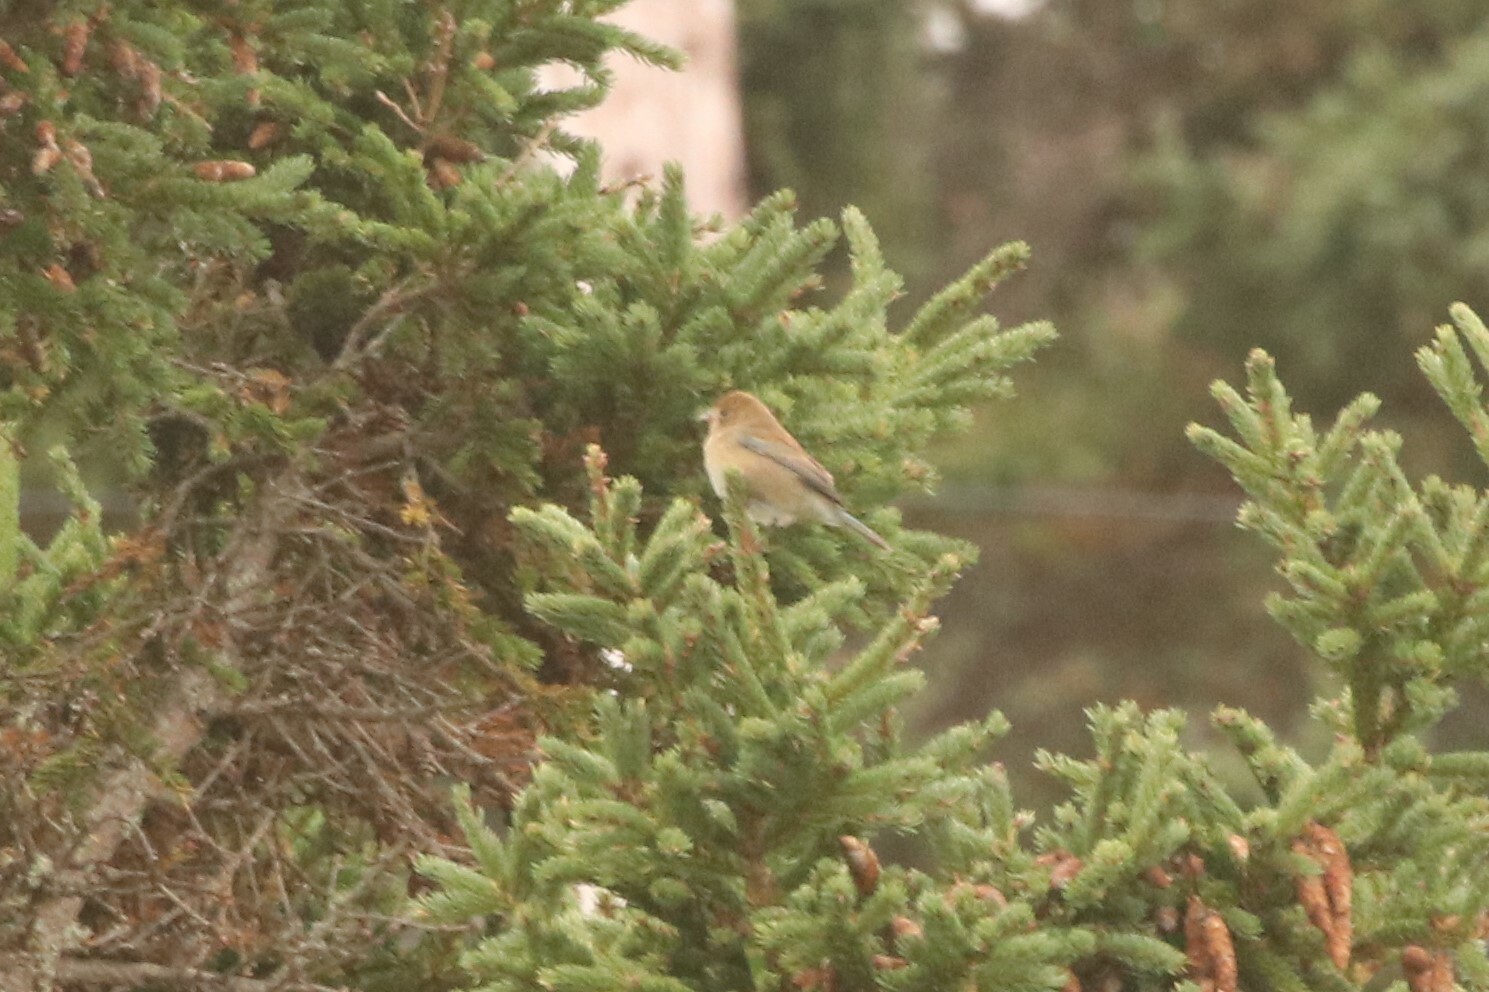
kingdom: Animalia
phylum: Chordata
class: Aves
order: Passeriformes
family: Cardinalidae
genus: Passerina
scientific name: Passerina cyanea
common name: Indigo bunting
